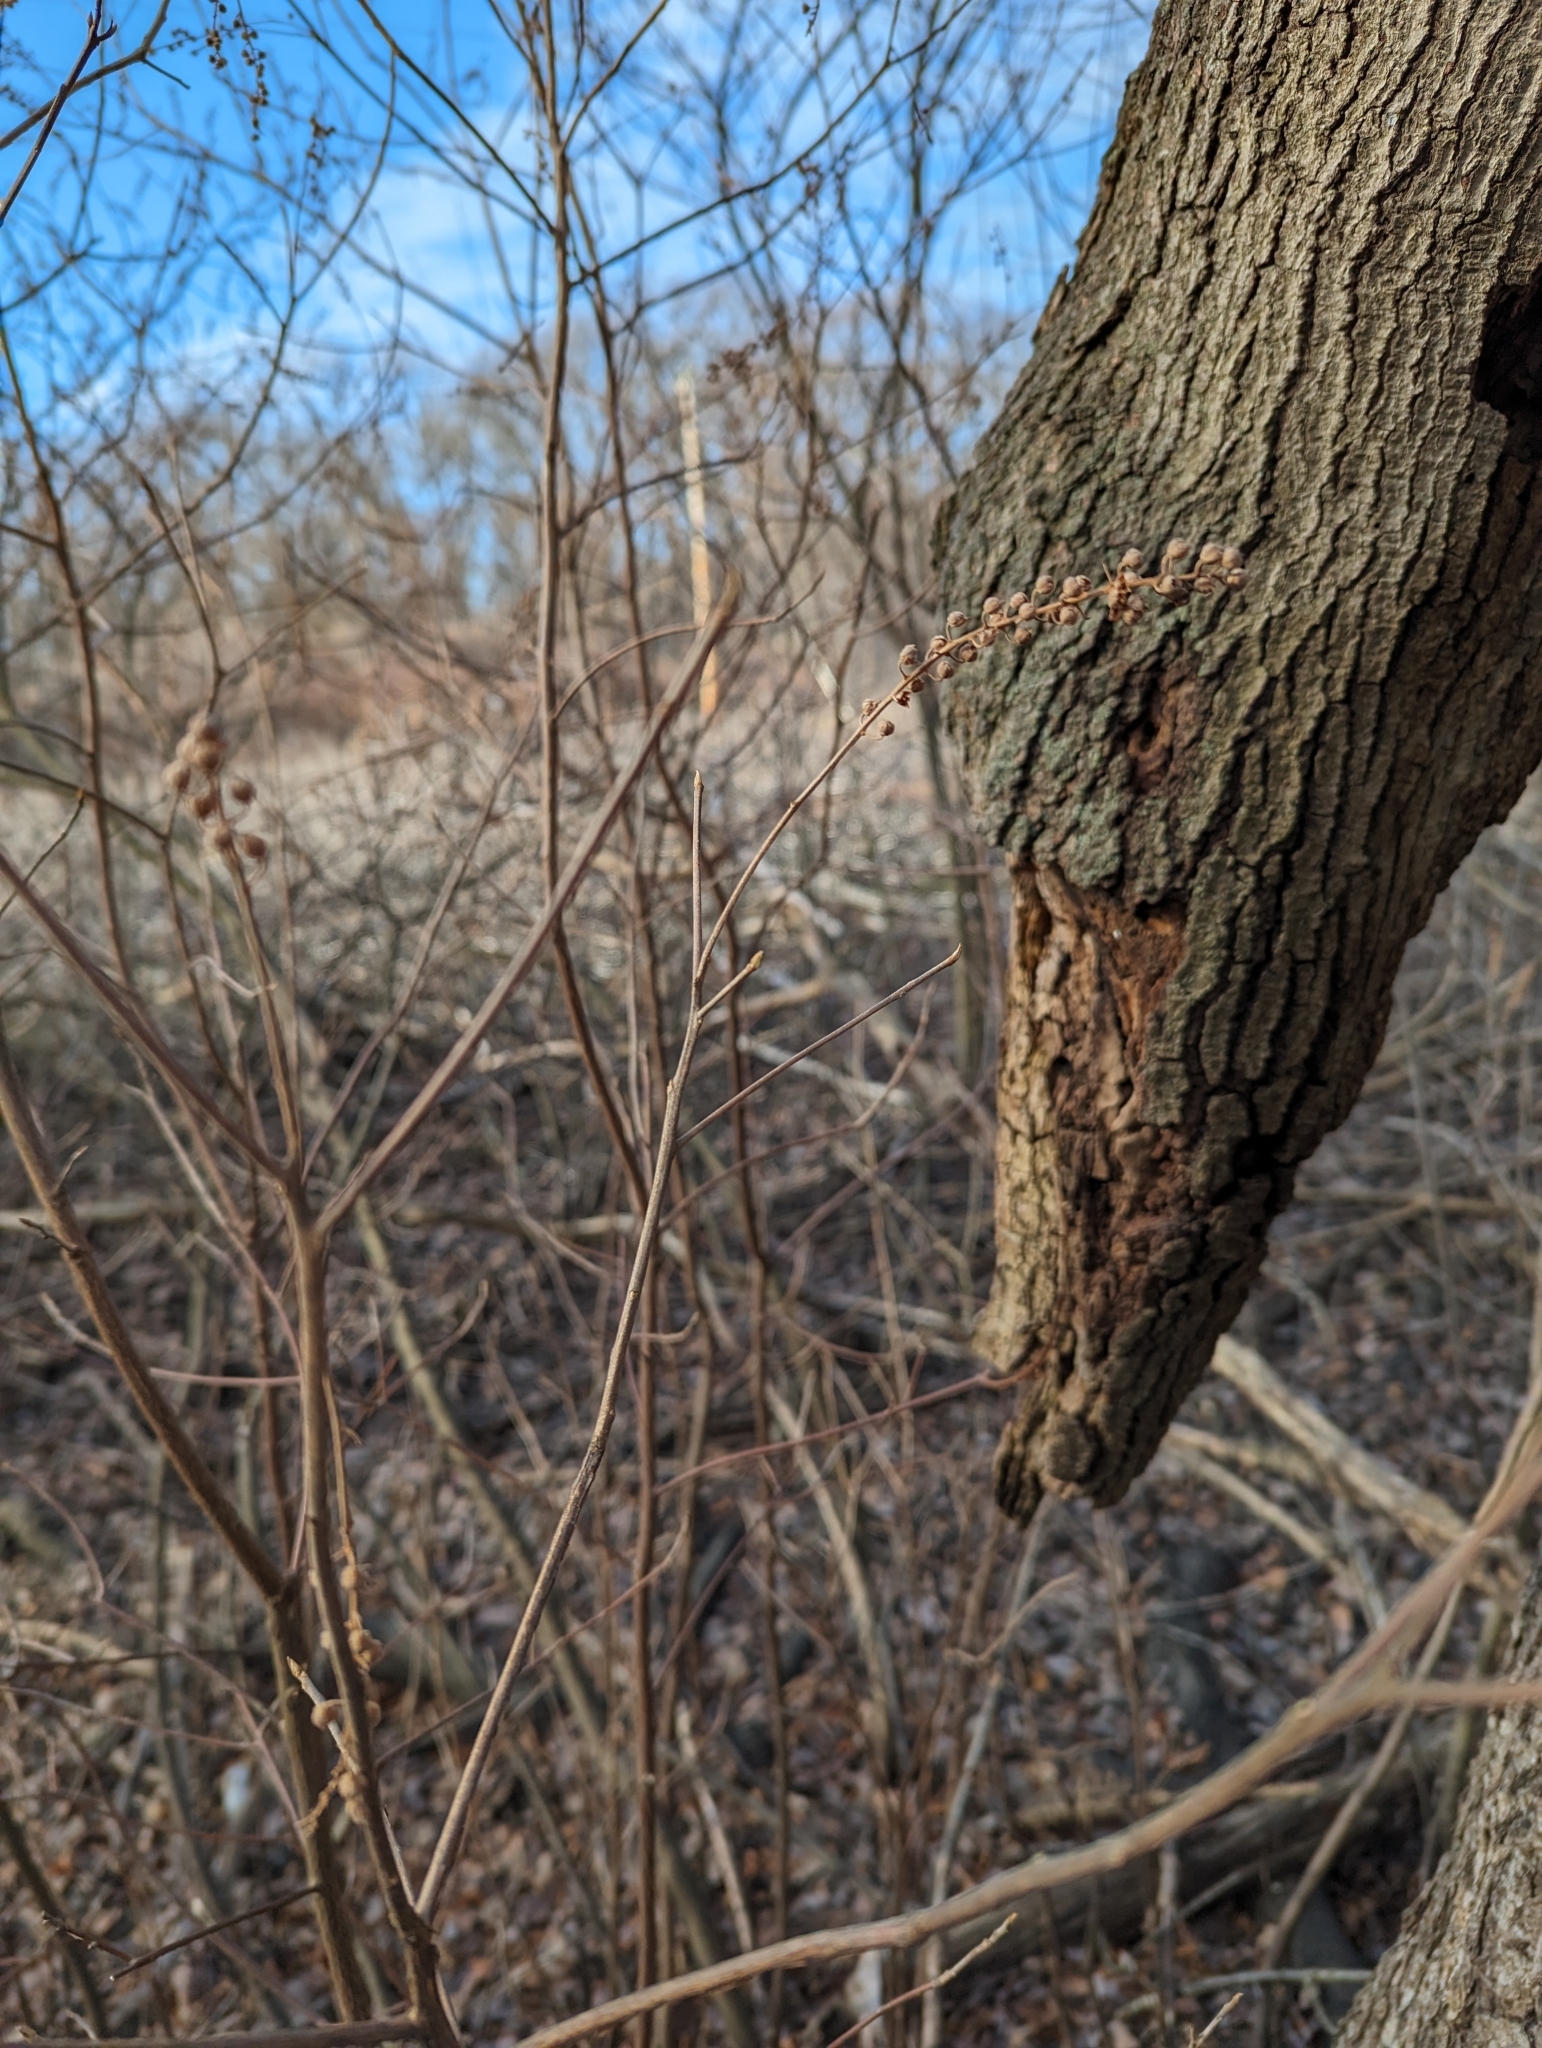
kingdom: Plantae
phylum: Tracheophyta
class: Magnoliopsida
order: Ericales
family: Clethraceae
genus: Clethra
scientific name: Clethra alnifolia
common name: Sweet pepperbush
